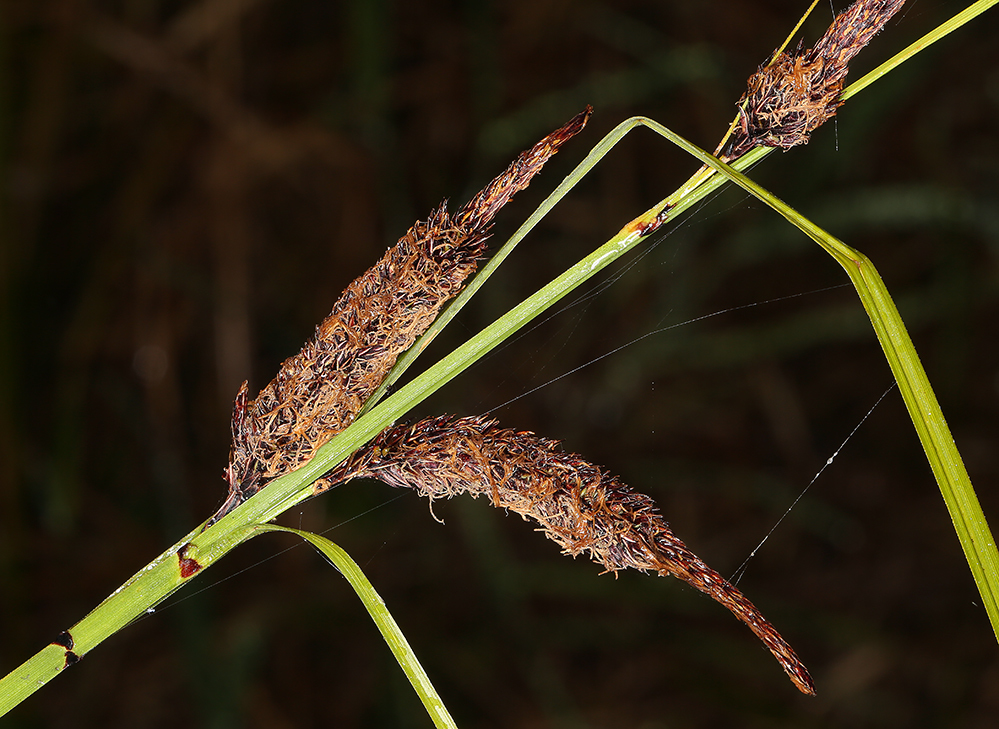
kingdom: Plantae
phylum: Tracheophyta
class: Liliopsida
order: Poales
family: Cyperaceae
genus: Carex
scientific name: Carex obnupta
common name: Slough sedge
